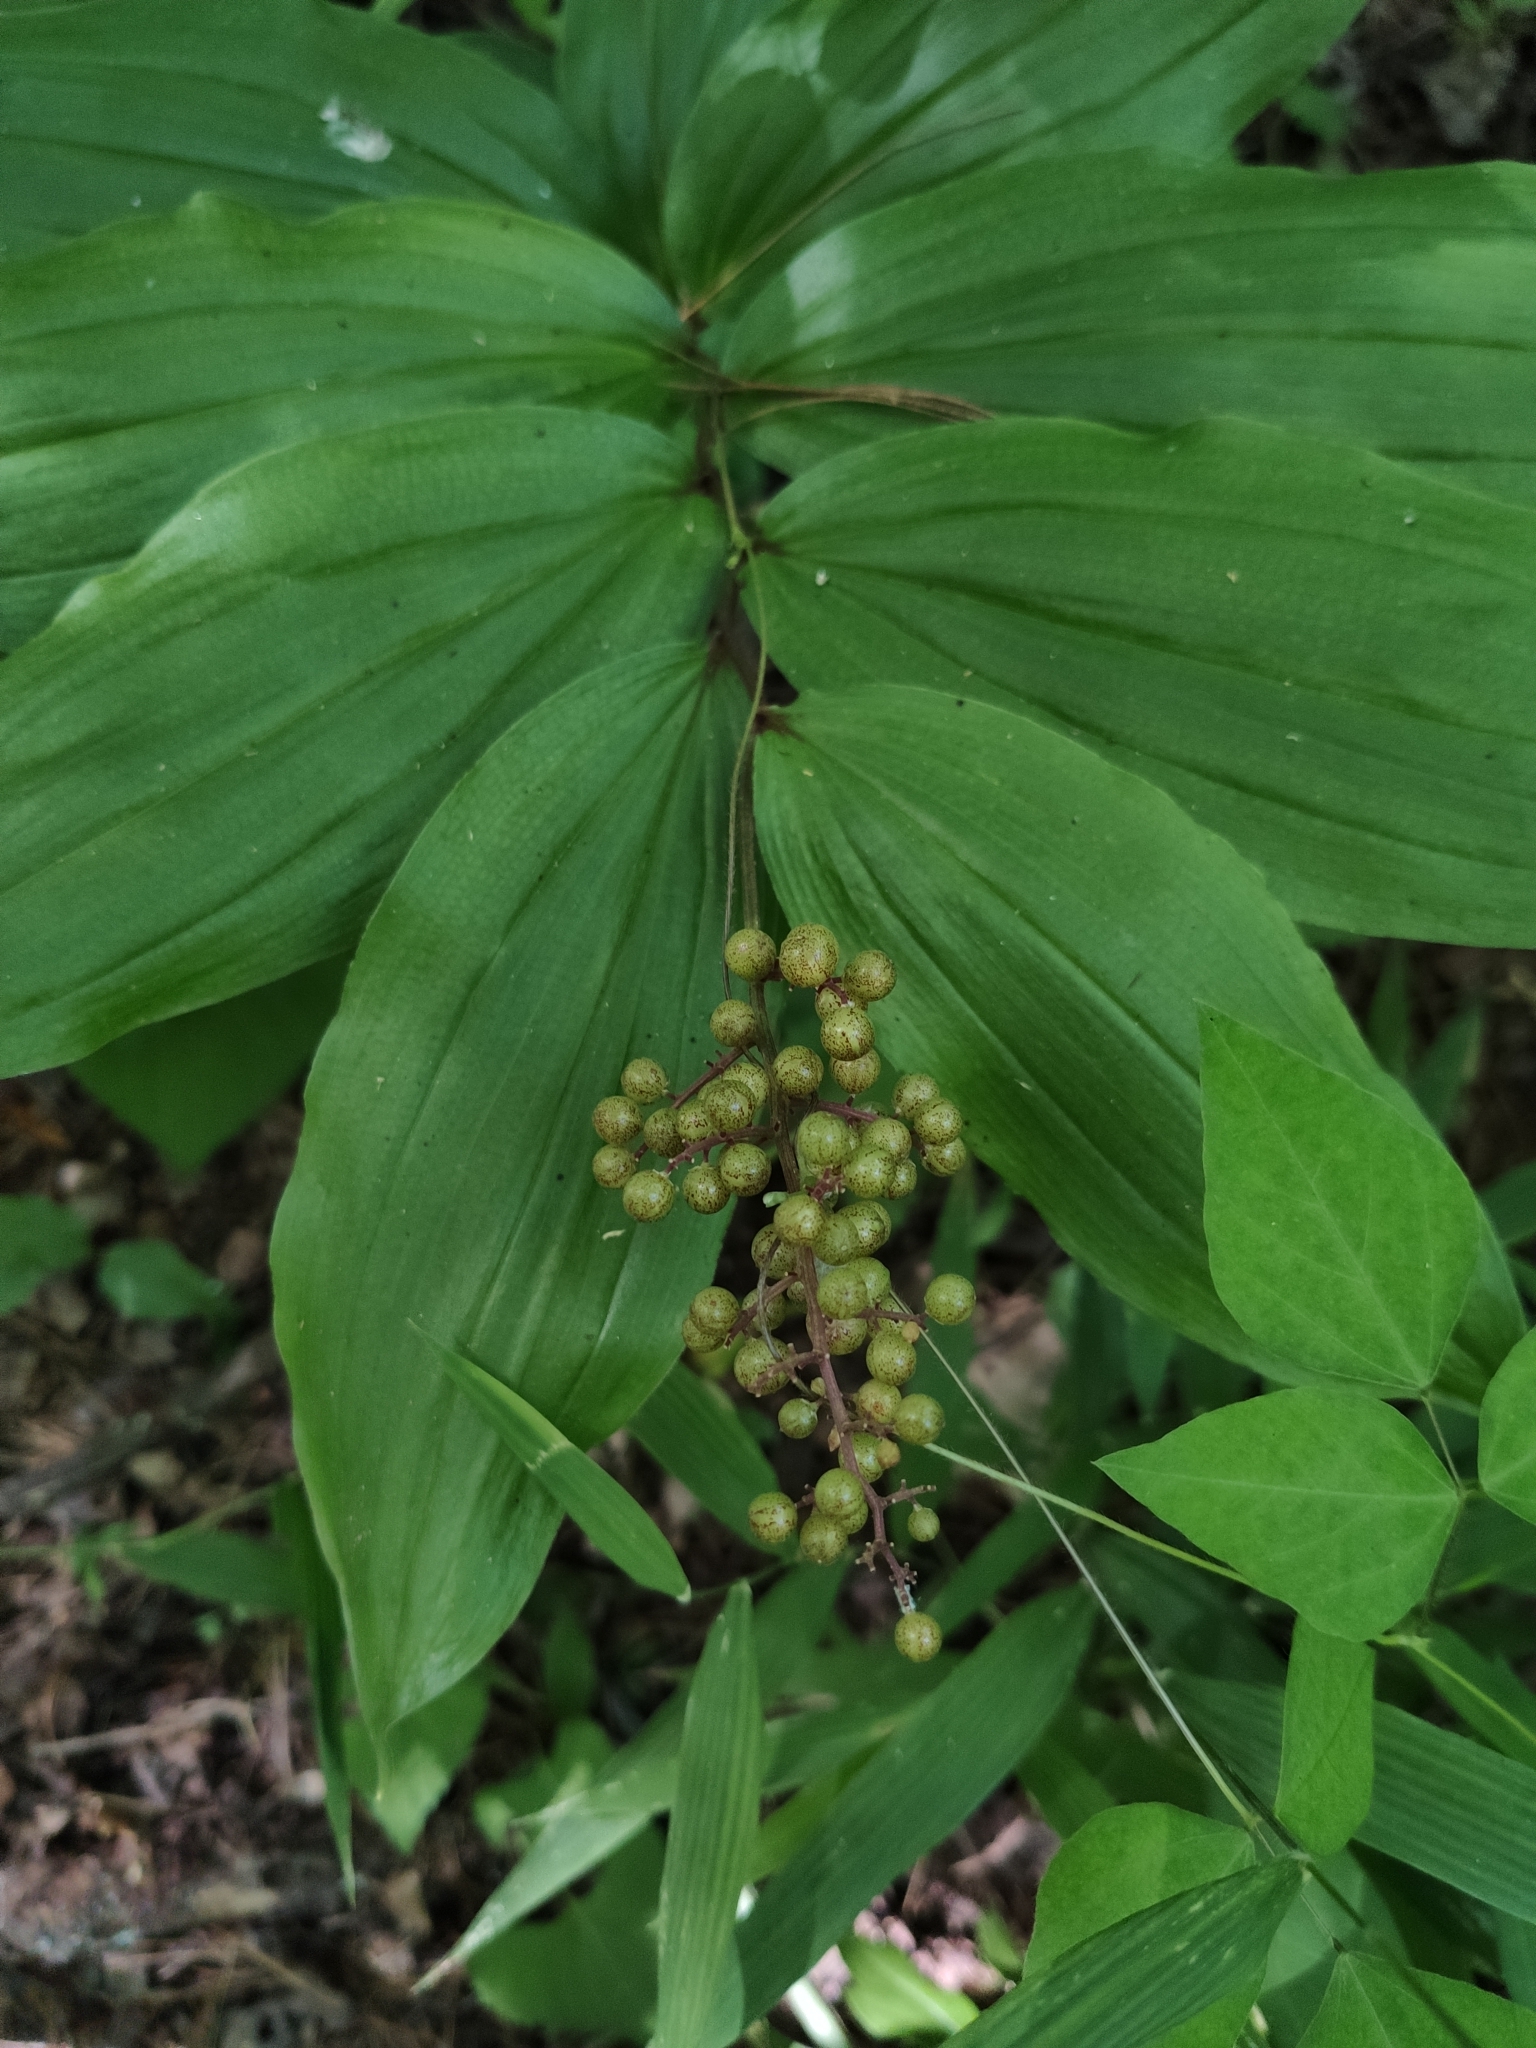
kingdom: Plantae
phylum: Tracheophyta
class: Liliopsida
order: Asparagales
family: Asparagaceae
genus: Maianthemum
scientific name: Maianthemum racemosum
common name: False spikenard
